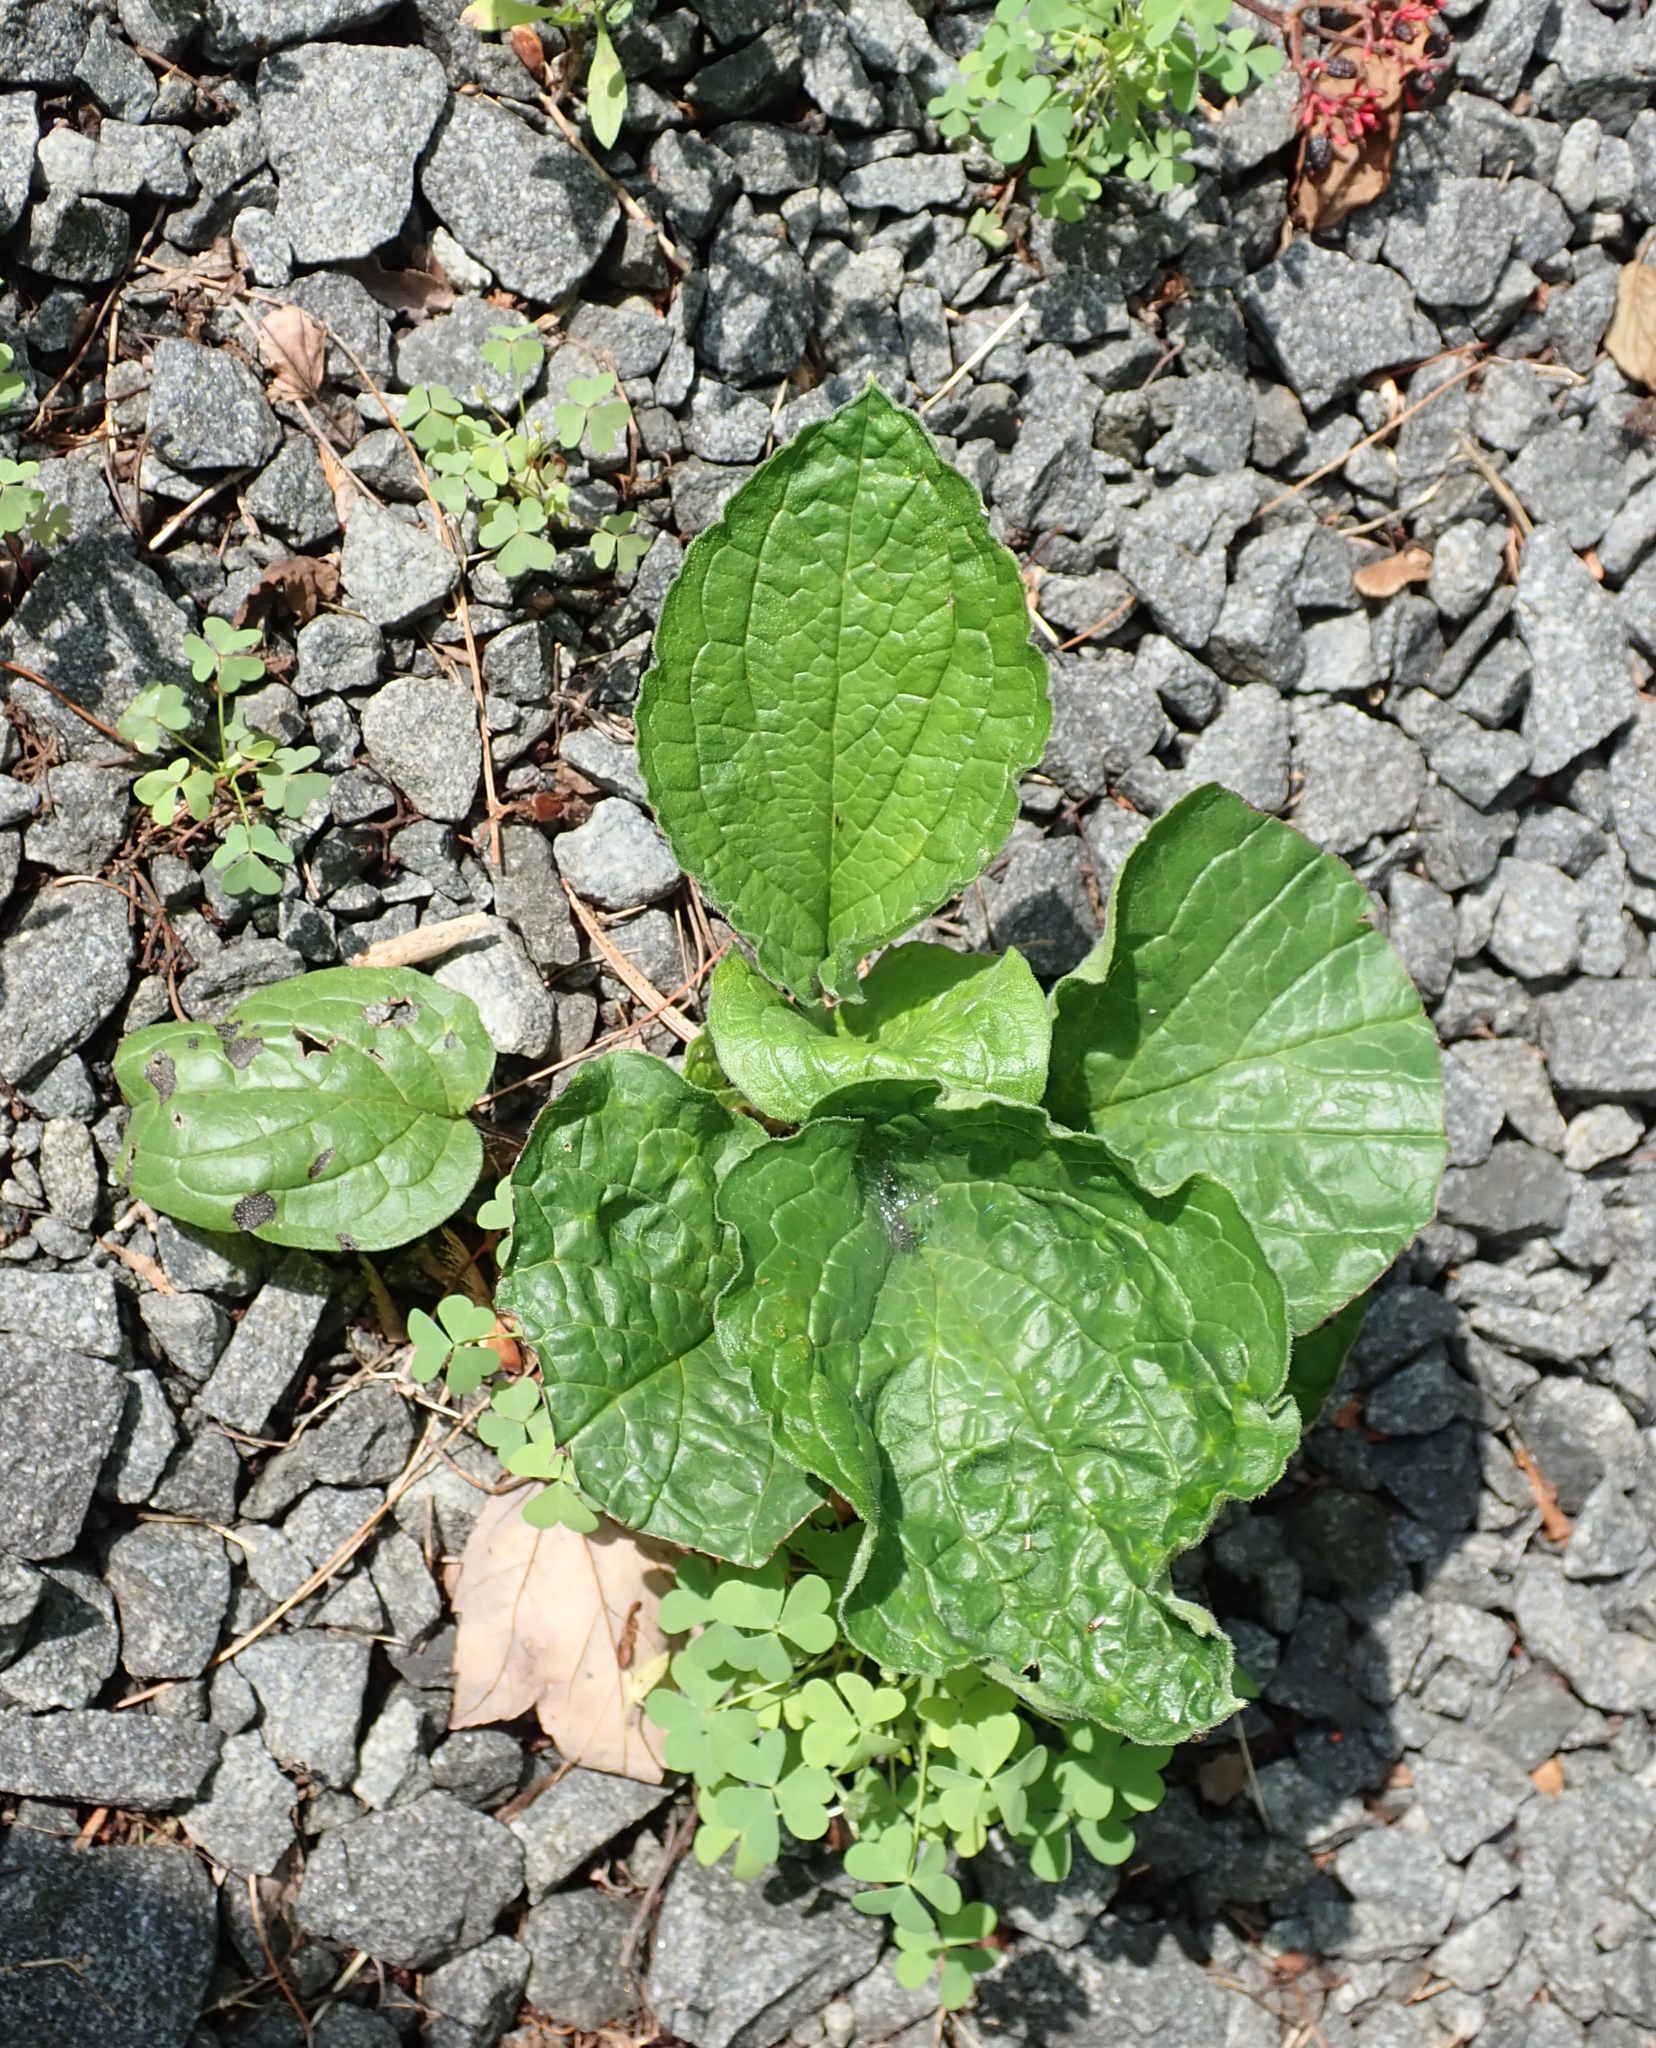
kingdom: Plantae
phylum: Tracheophyta
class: Magnoliopsida
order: Boraginales
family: Boraginaceae
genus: Hackelia
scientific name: Hackelia virginiana
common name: Beggar's-lice
